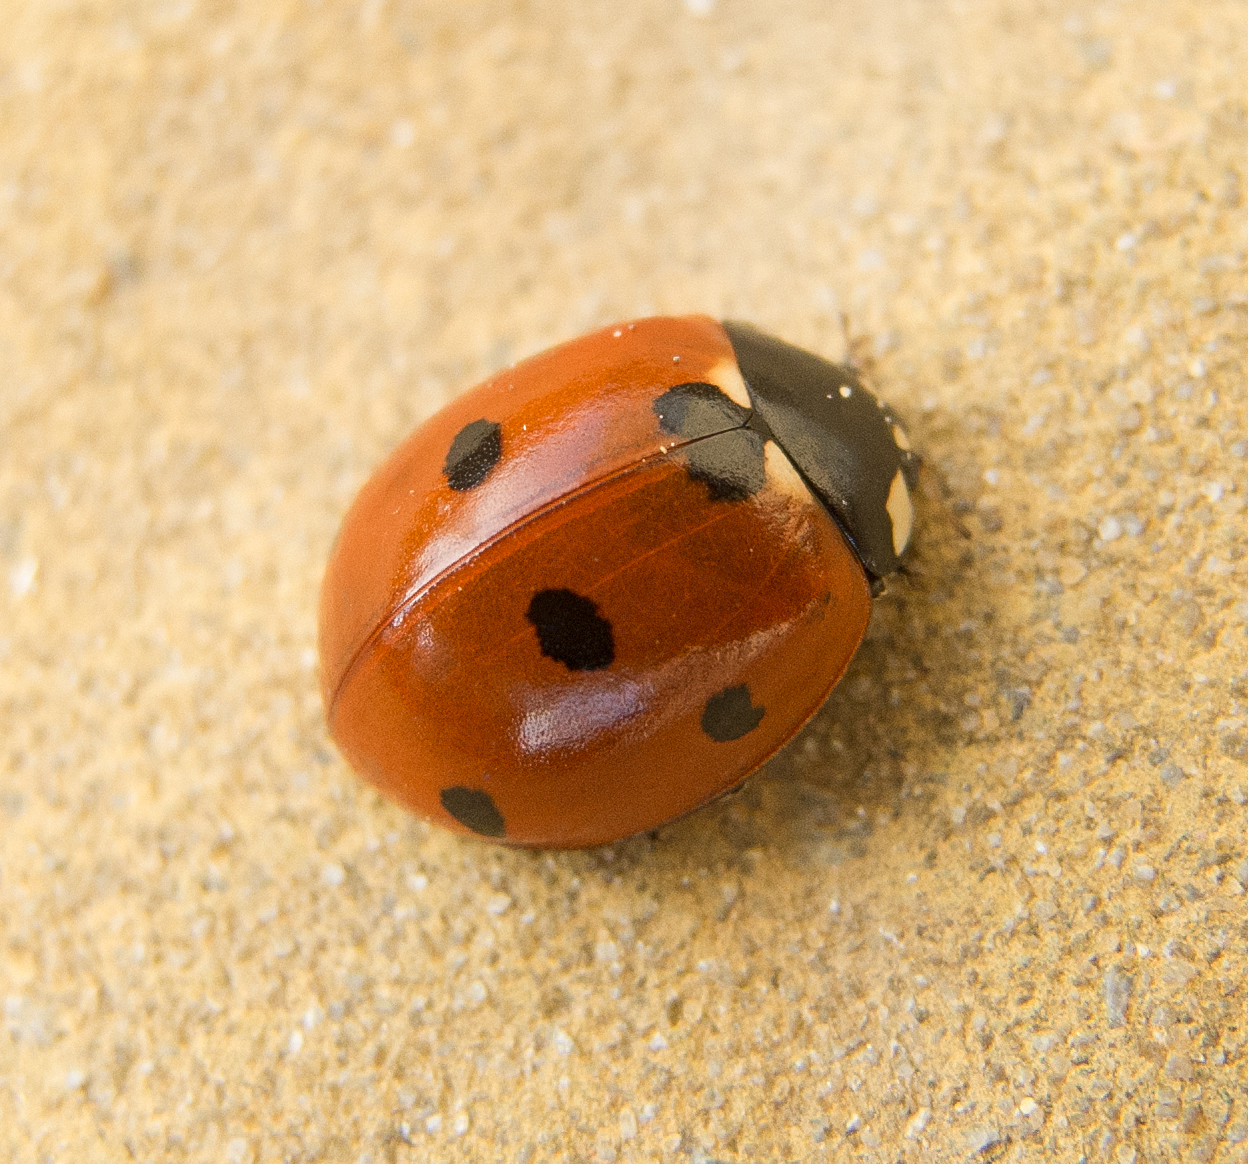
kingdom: Animalia
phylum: Arthropoda
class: Insecta
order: Coleoptera
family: Coccinellidae
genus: Coccinella
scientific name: Coccinella septempunctata
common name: Sevenspotted lady beetle
